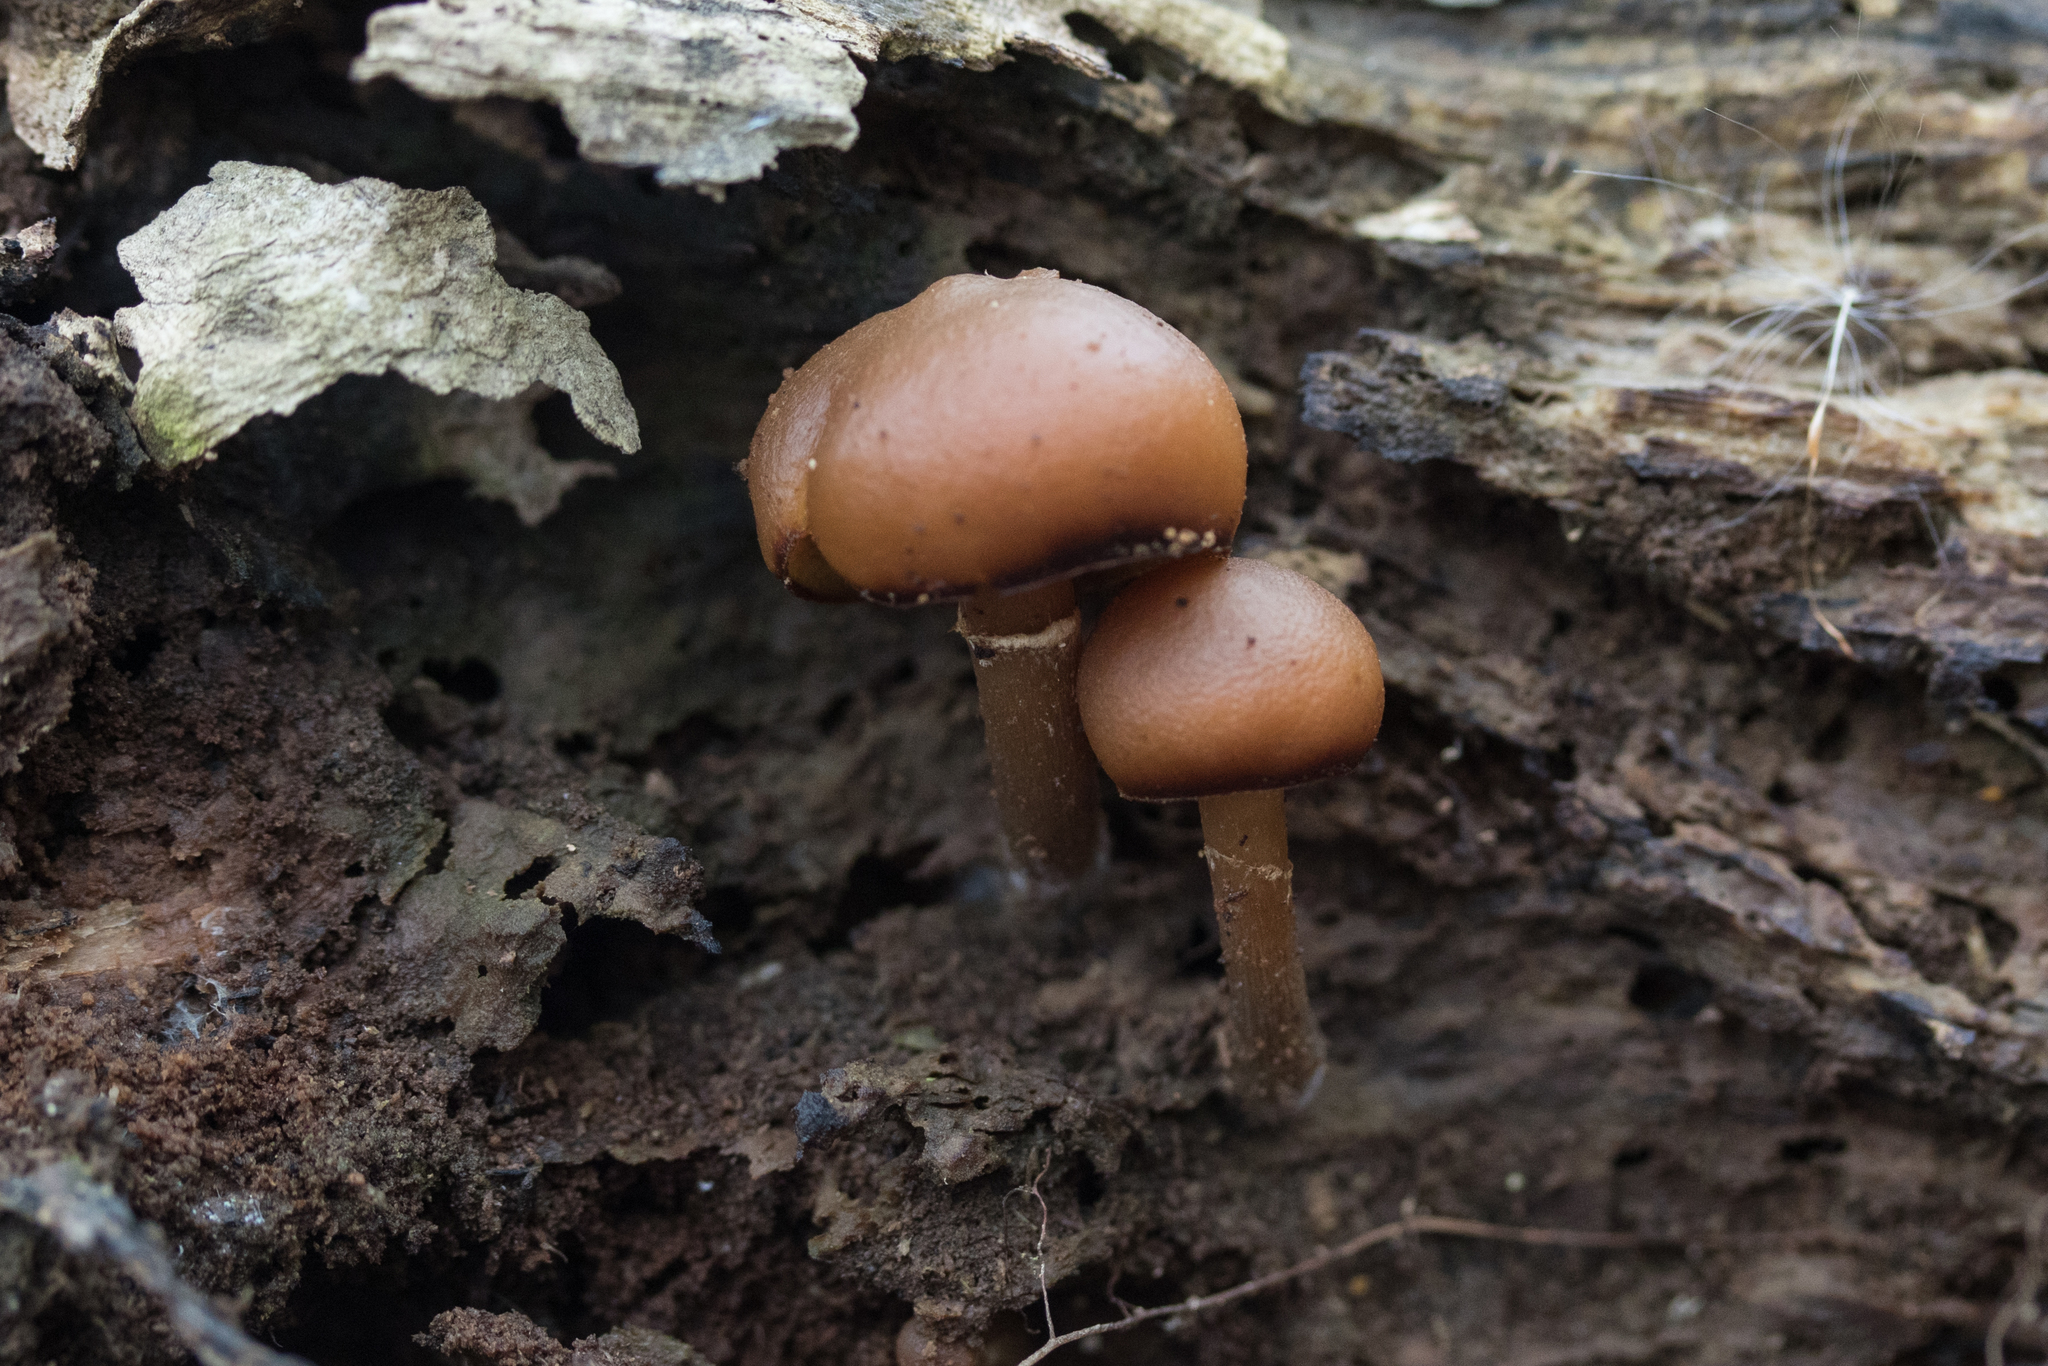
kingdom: Fungi
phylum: Basidiomycota
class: Agaricomycetes
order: Agaricales
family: Hymenogastraceae
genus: Galerina
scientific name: Galerina marginata
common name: Funeral bell
